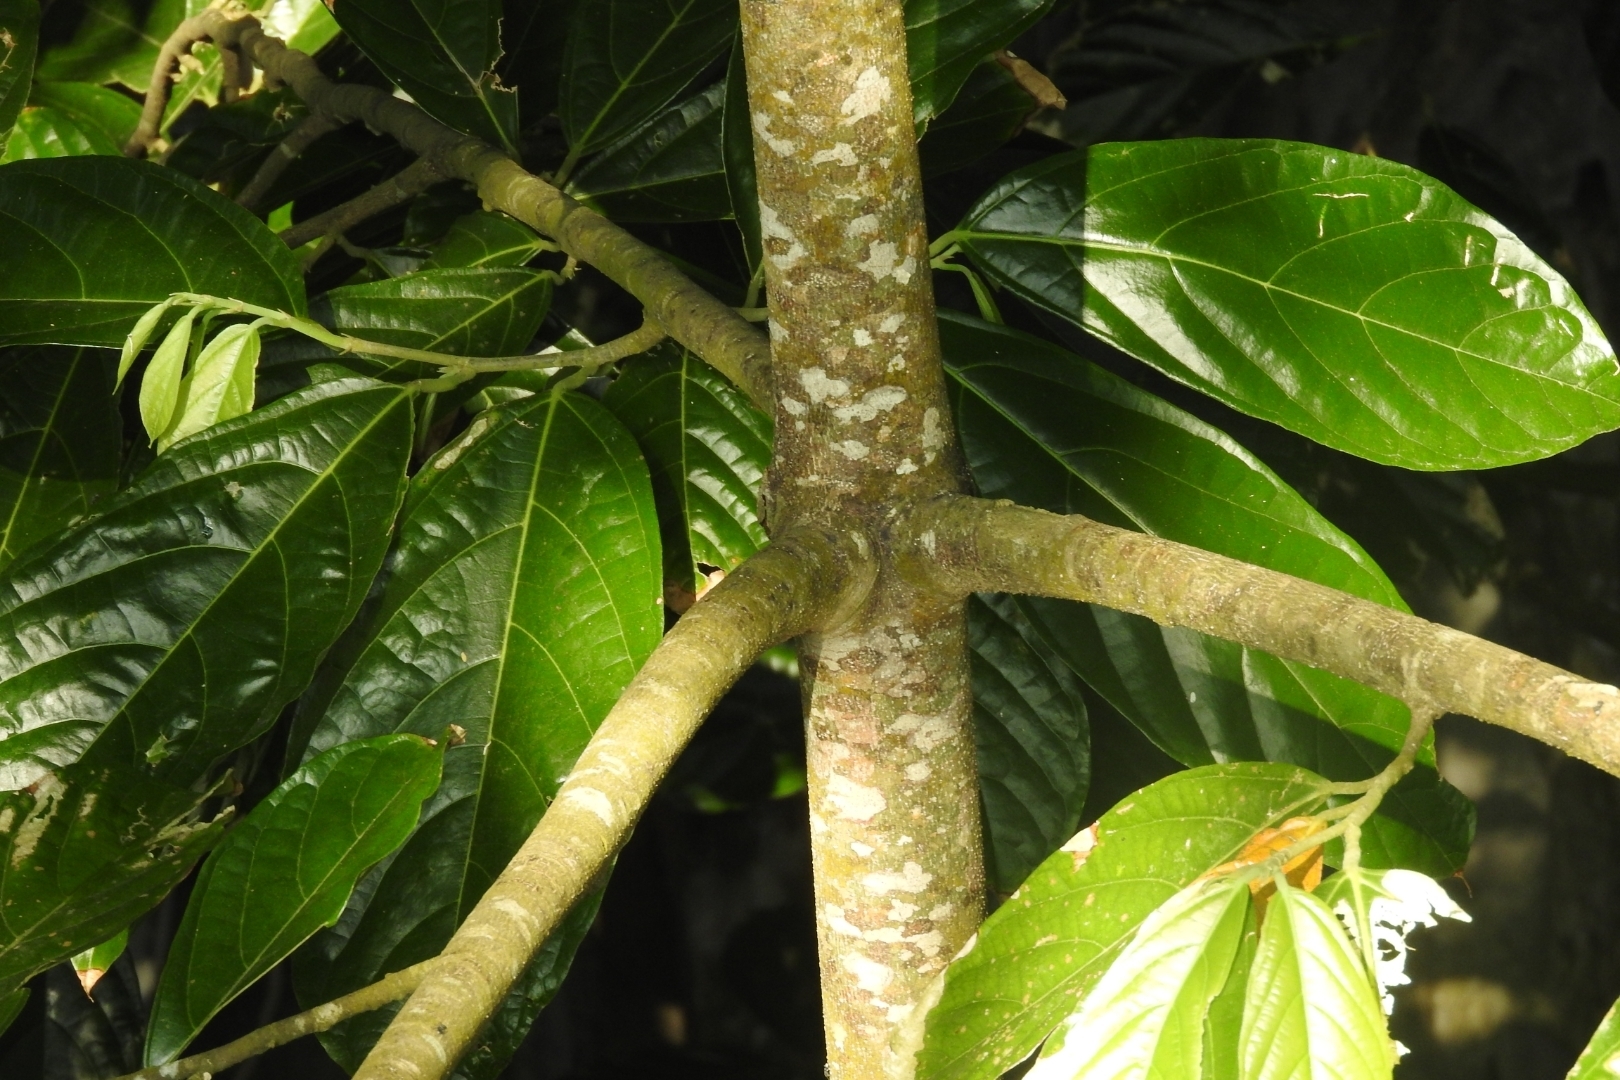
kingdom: Plantae
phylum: Tracheophyta
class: Magnoliopsida
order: Rosales
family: Moraceae
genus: Artocarpus
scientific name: Artocarpus heterophyllus
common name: Jackfruit
